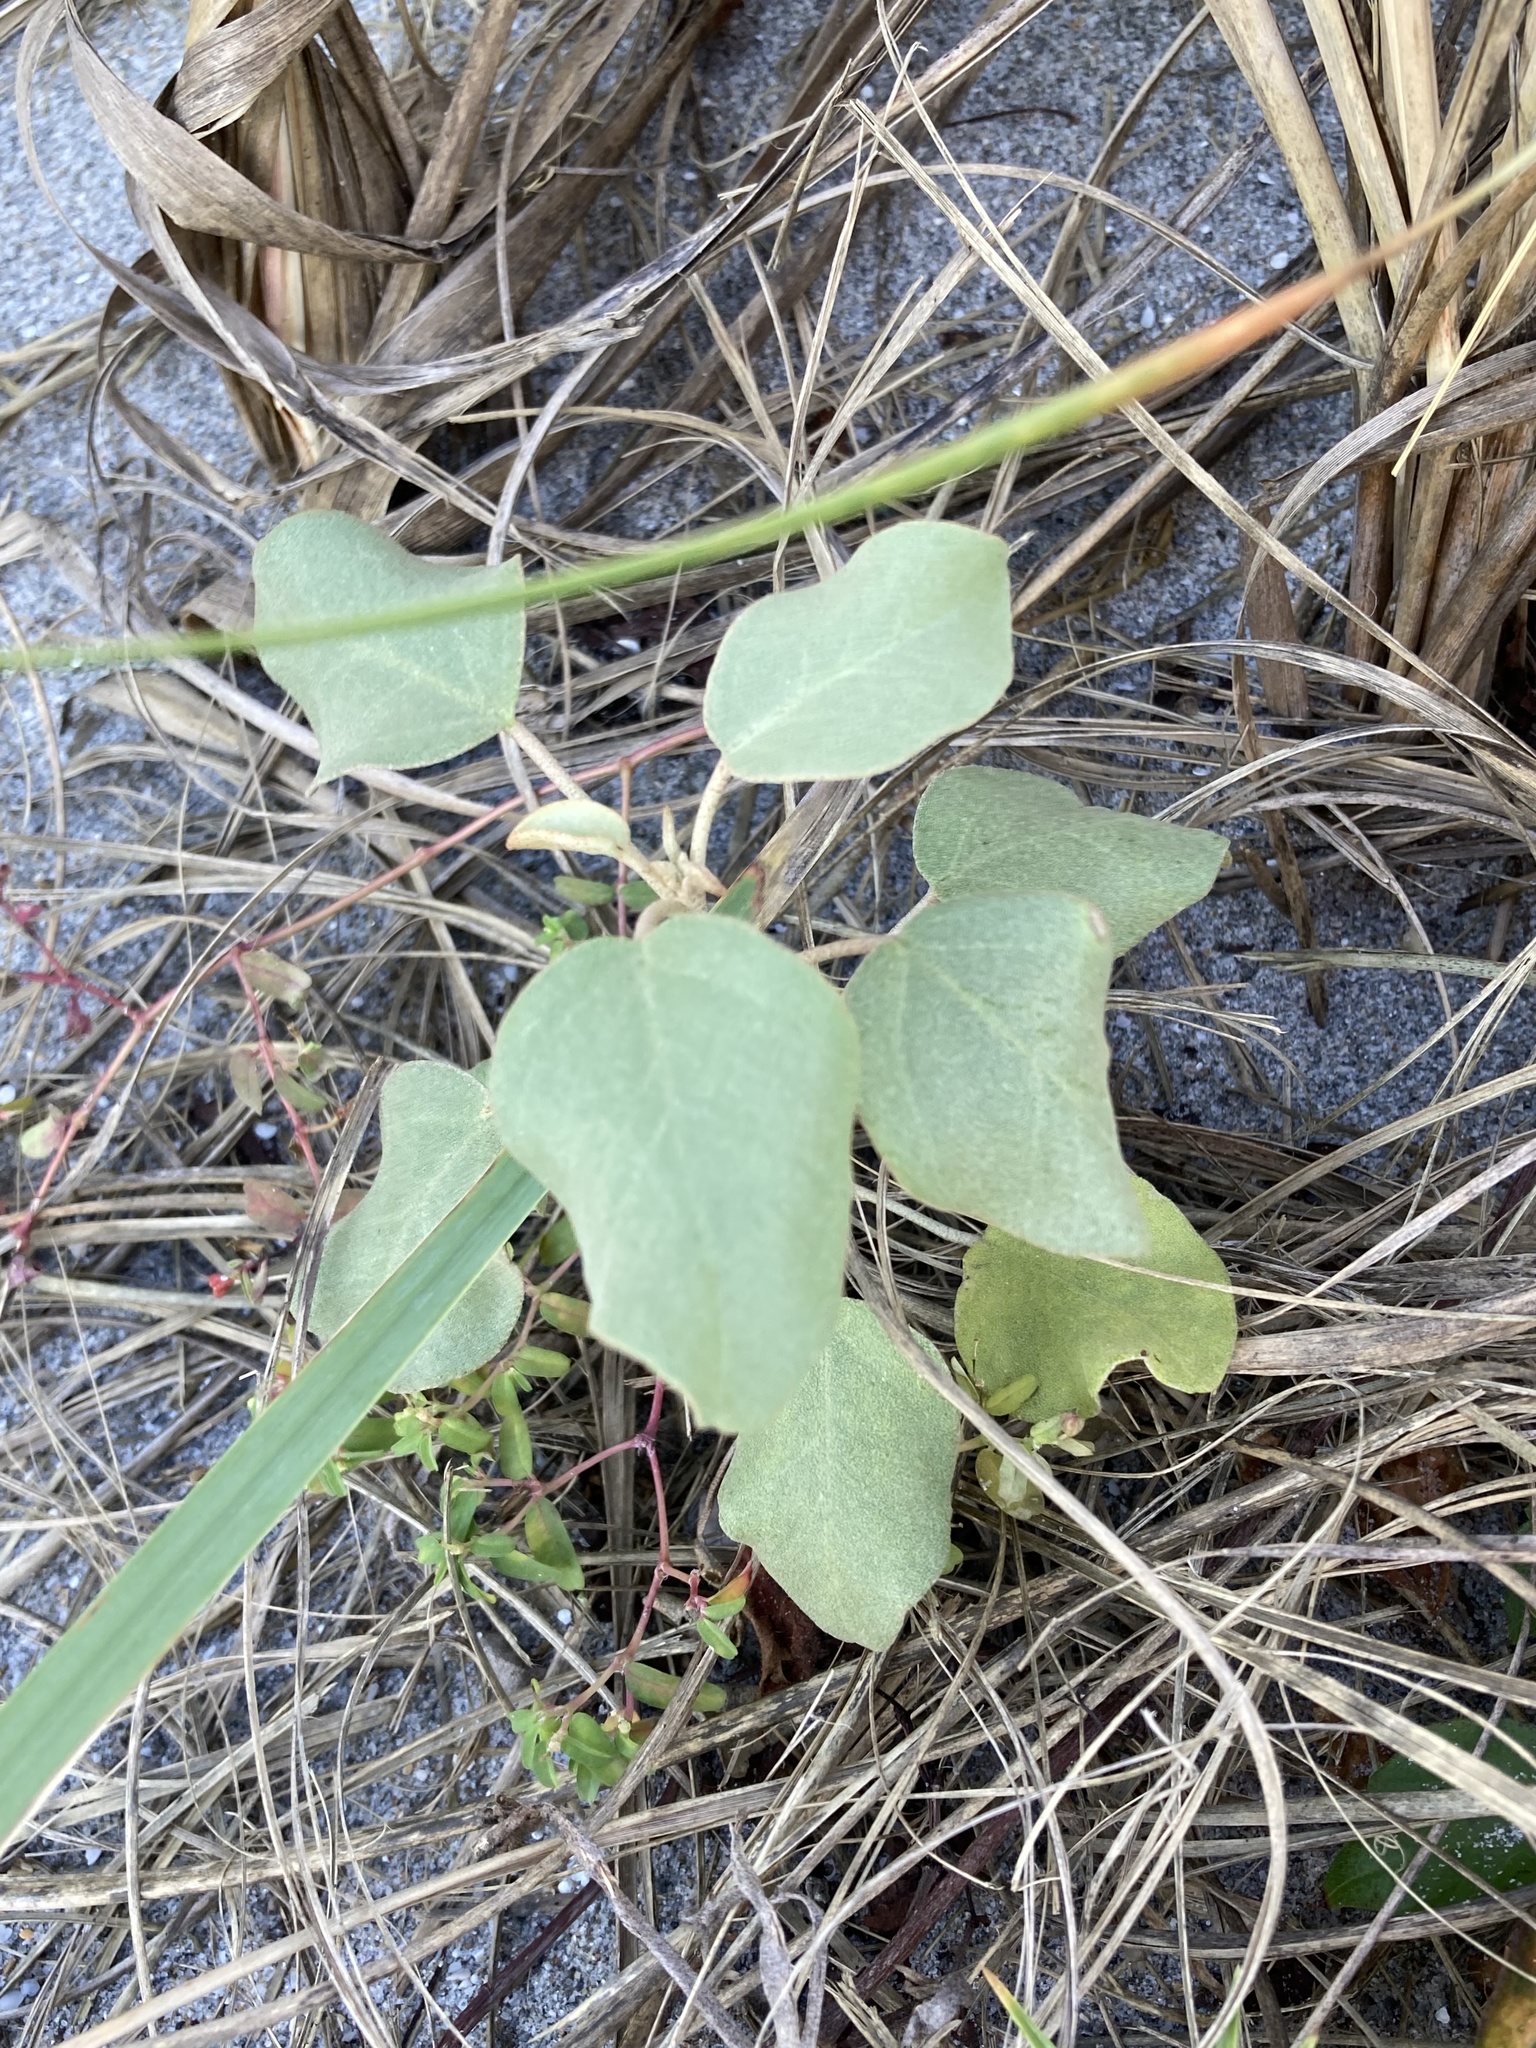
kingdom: Plantae
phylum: Tracheophyta
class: Magnoliopsida
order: Malpighiales
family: Euphorbiaceae
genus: Croton
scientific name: Croton punctatus
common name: Beach-tea
